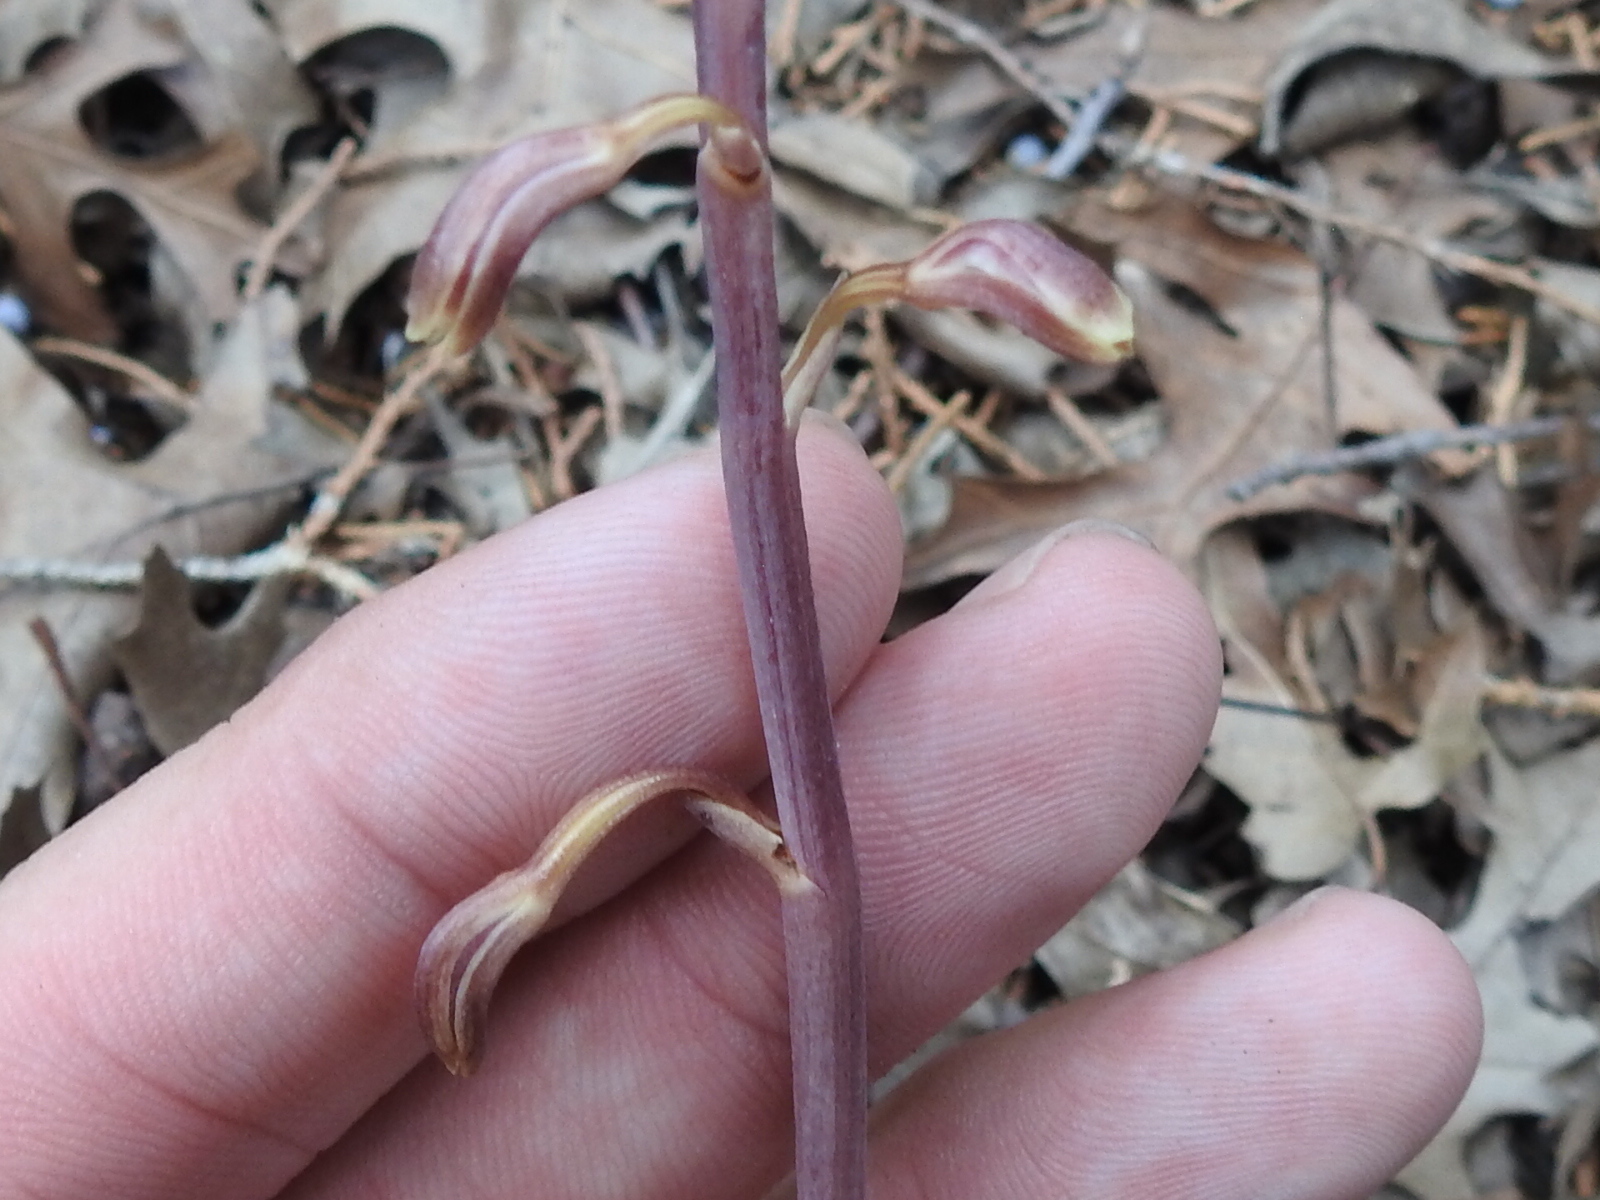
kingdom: Plantae
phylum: Tracheophyta
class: Liliopsida
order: Asparagales
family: Orchidaceae
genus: Bletia
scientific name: Bletia nitida
